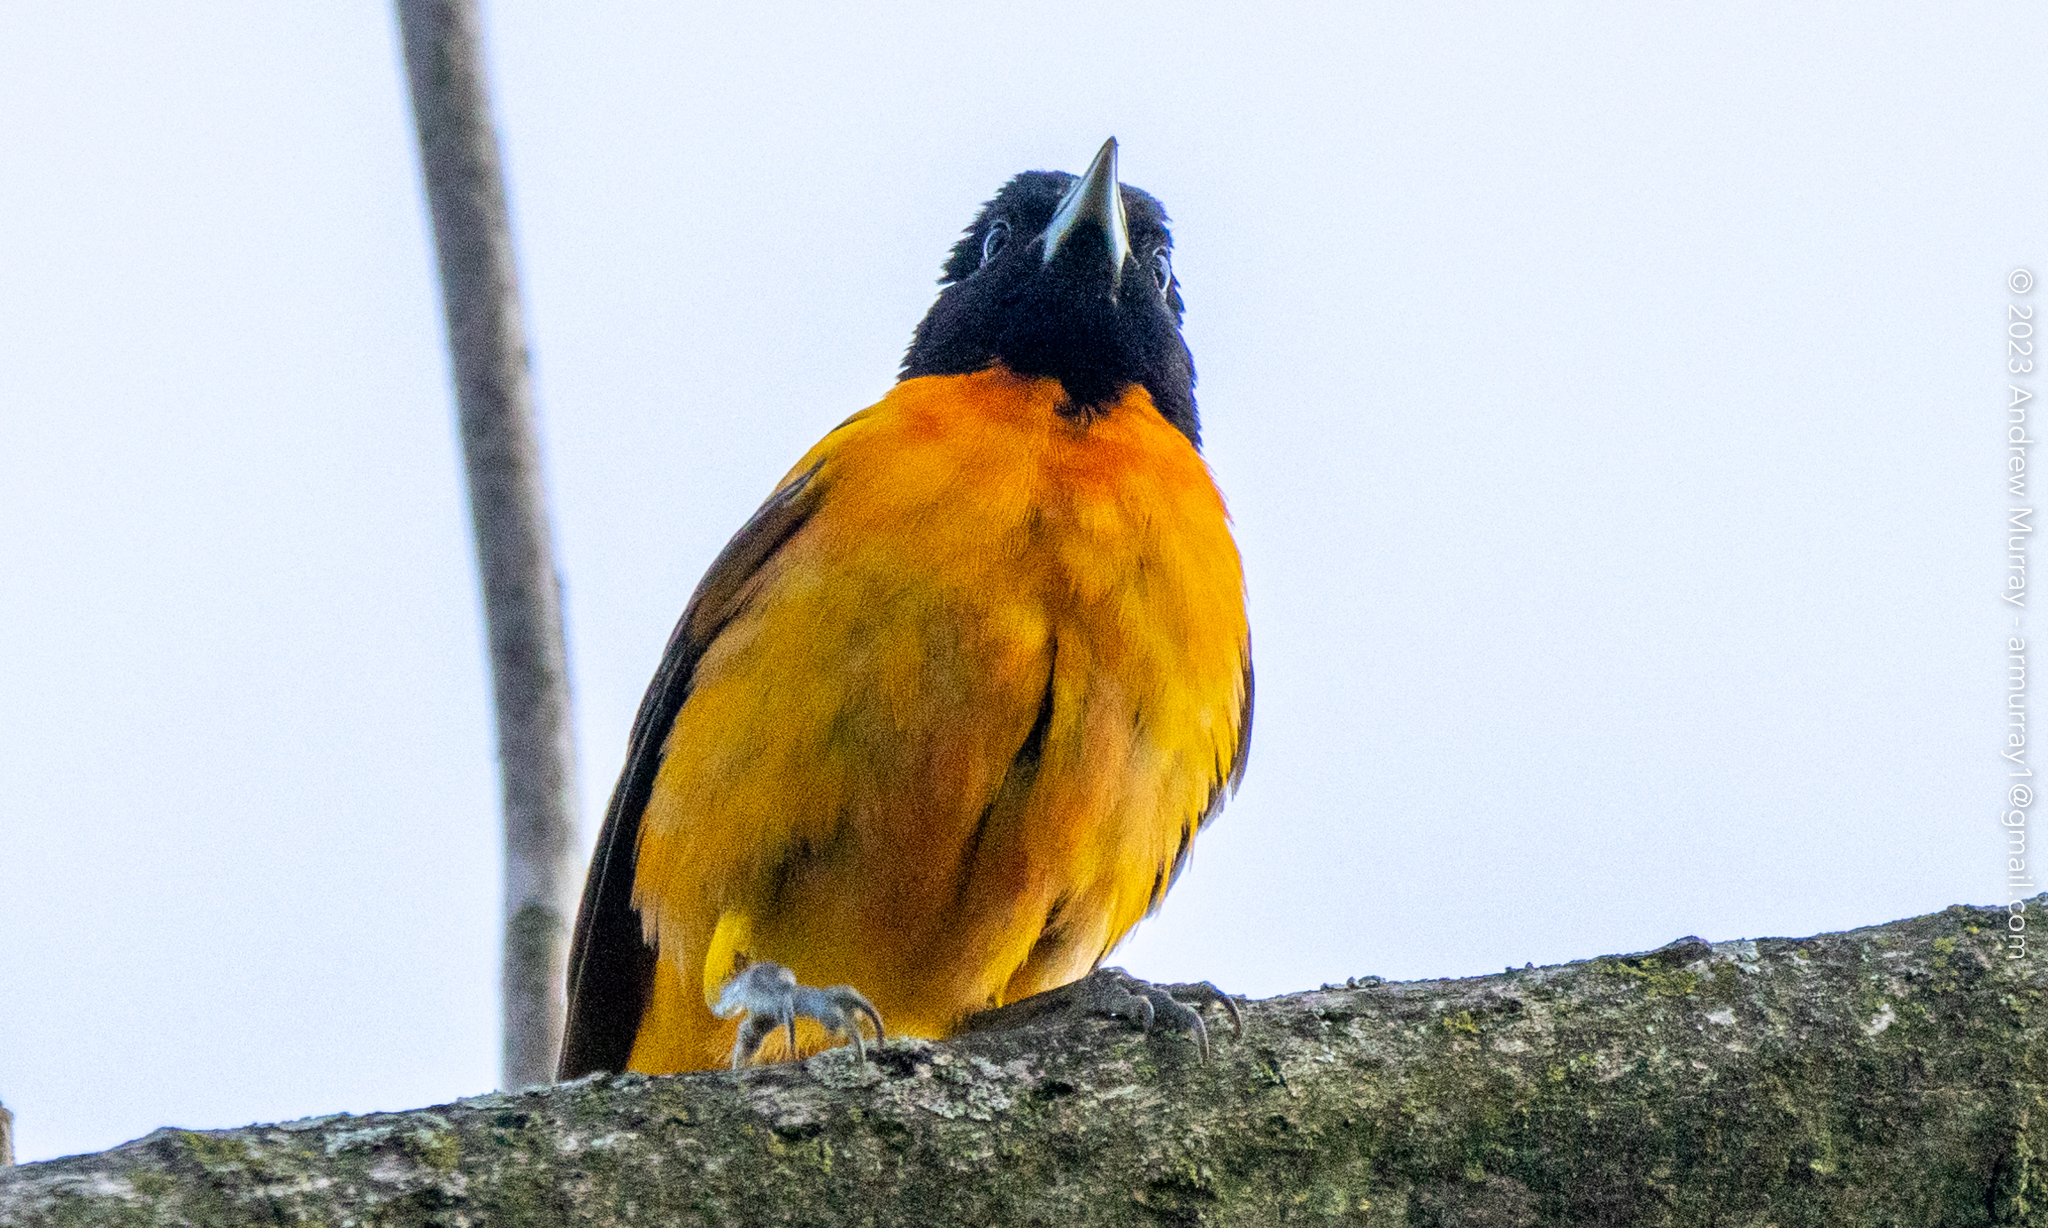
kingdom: Animalia
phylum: Chordata
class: Aves
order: Passeriformes
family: Icteridae
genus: Icterus
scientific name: Icterus galbula
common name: Baltimore oriole
